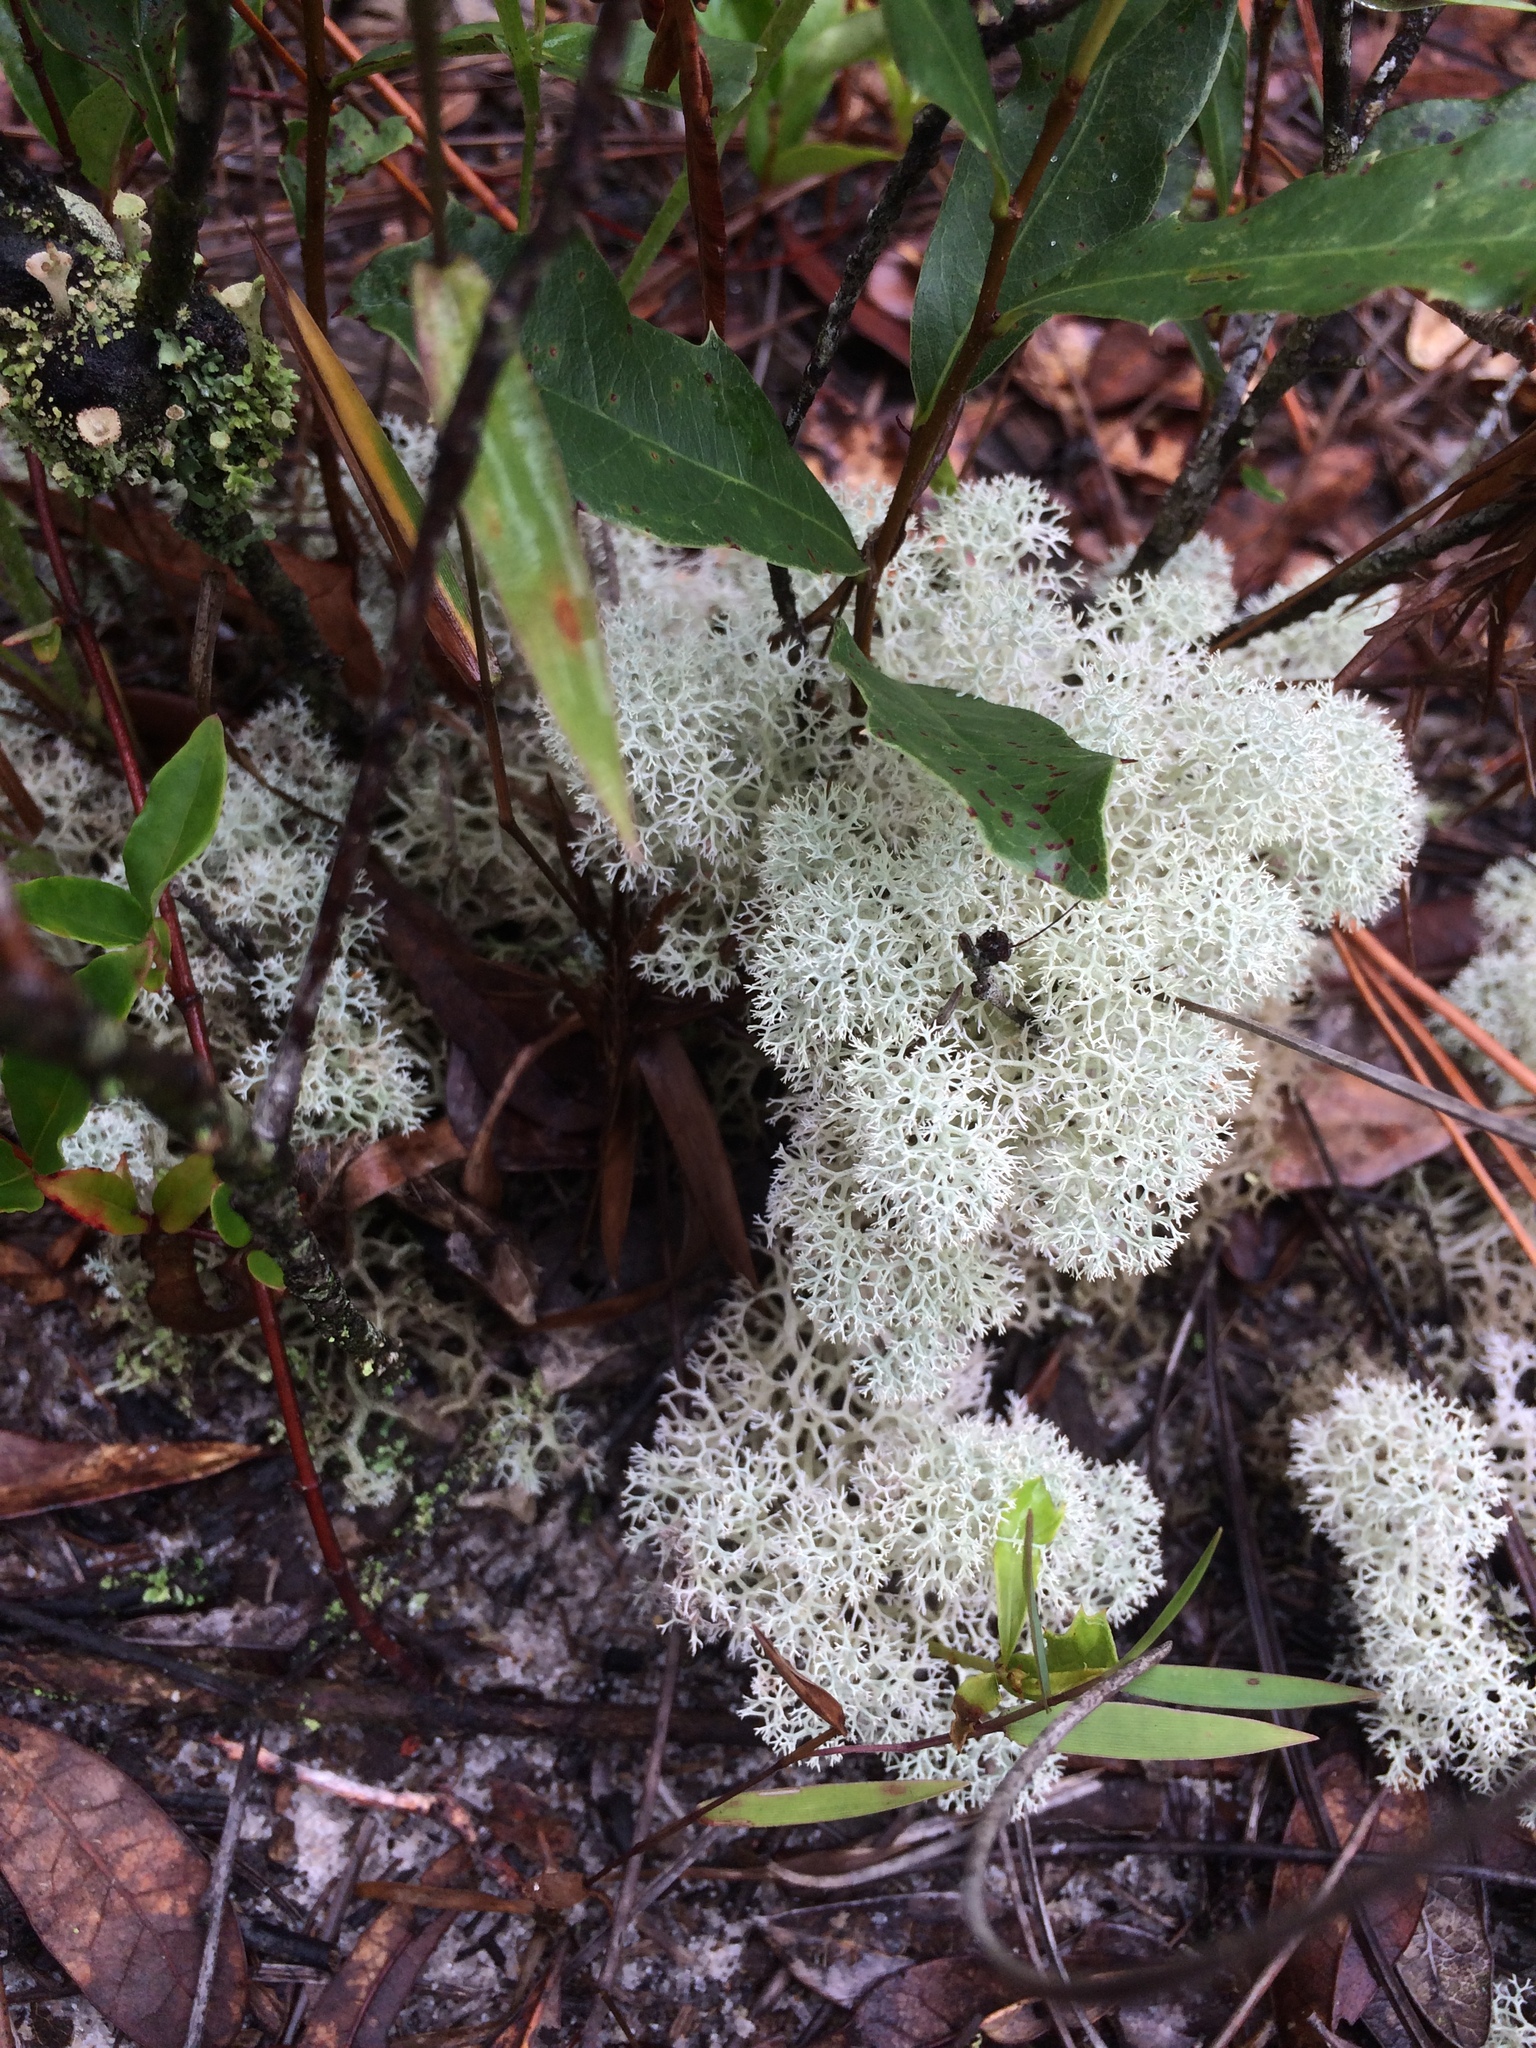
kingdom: Fungi
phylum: Ascomycota
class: Lecanoromycetes
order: Lecanorales
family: Cladoniaceae
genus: Cladonia
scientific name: Cladonia evansii
